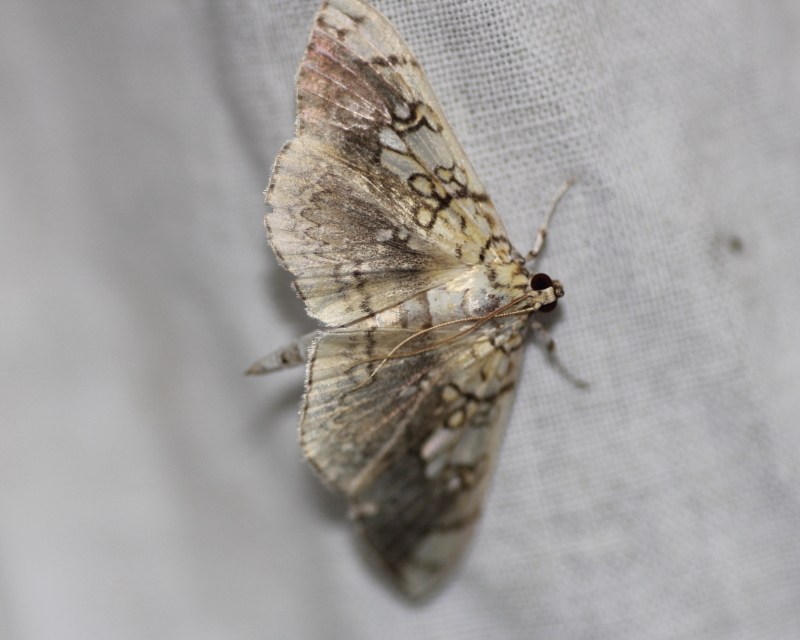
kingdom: Animalia
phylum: Arthropoda
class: Insecta
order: Lepidoptera
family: Crambidae
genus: Pantographa
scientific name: Pantographa limata
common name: Basswood leafroller moth
